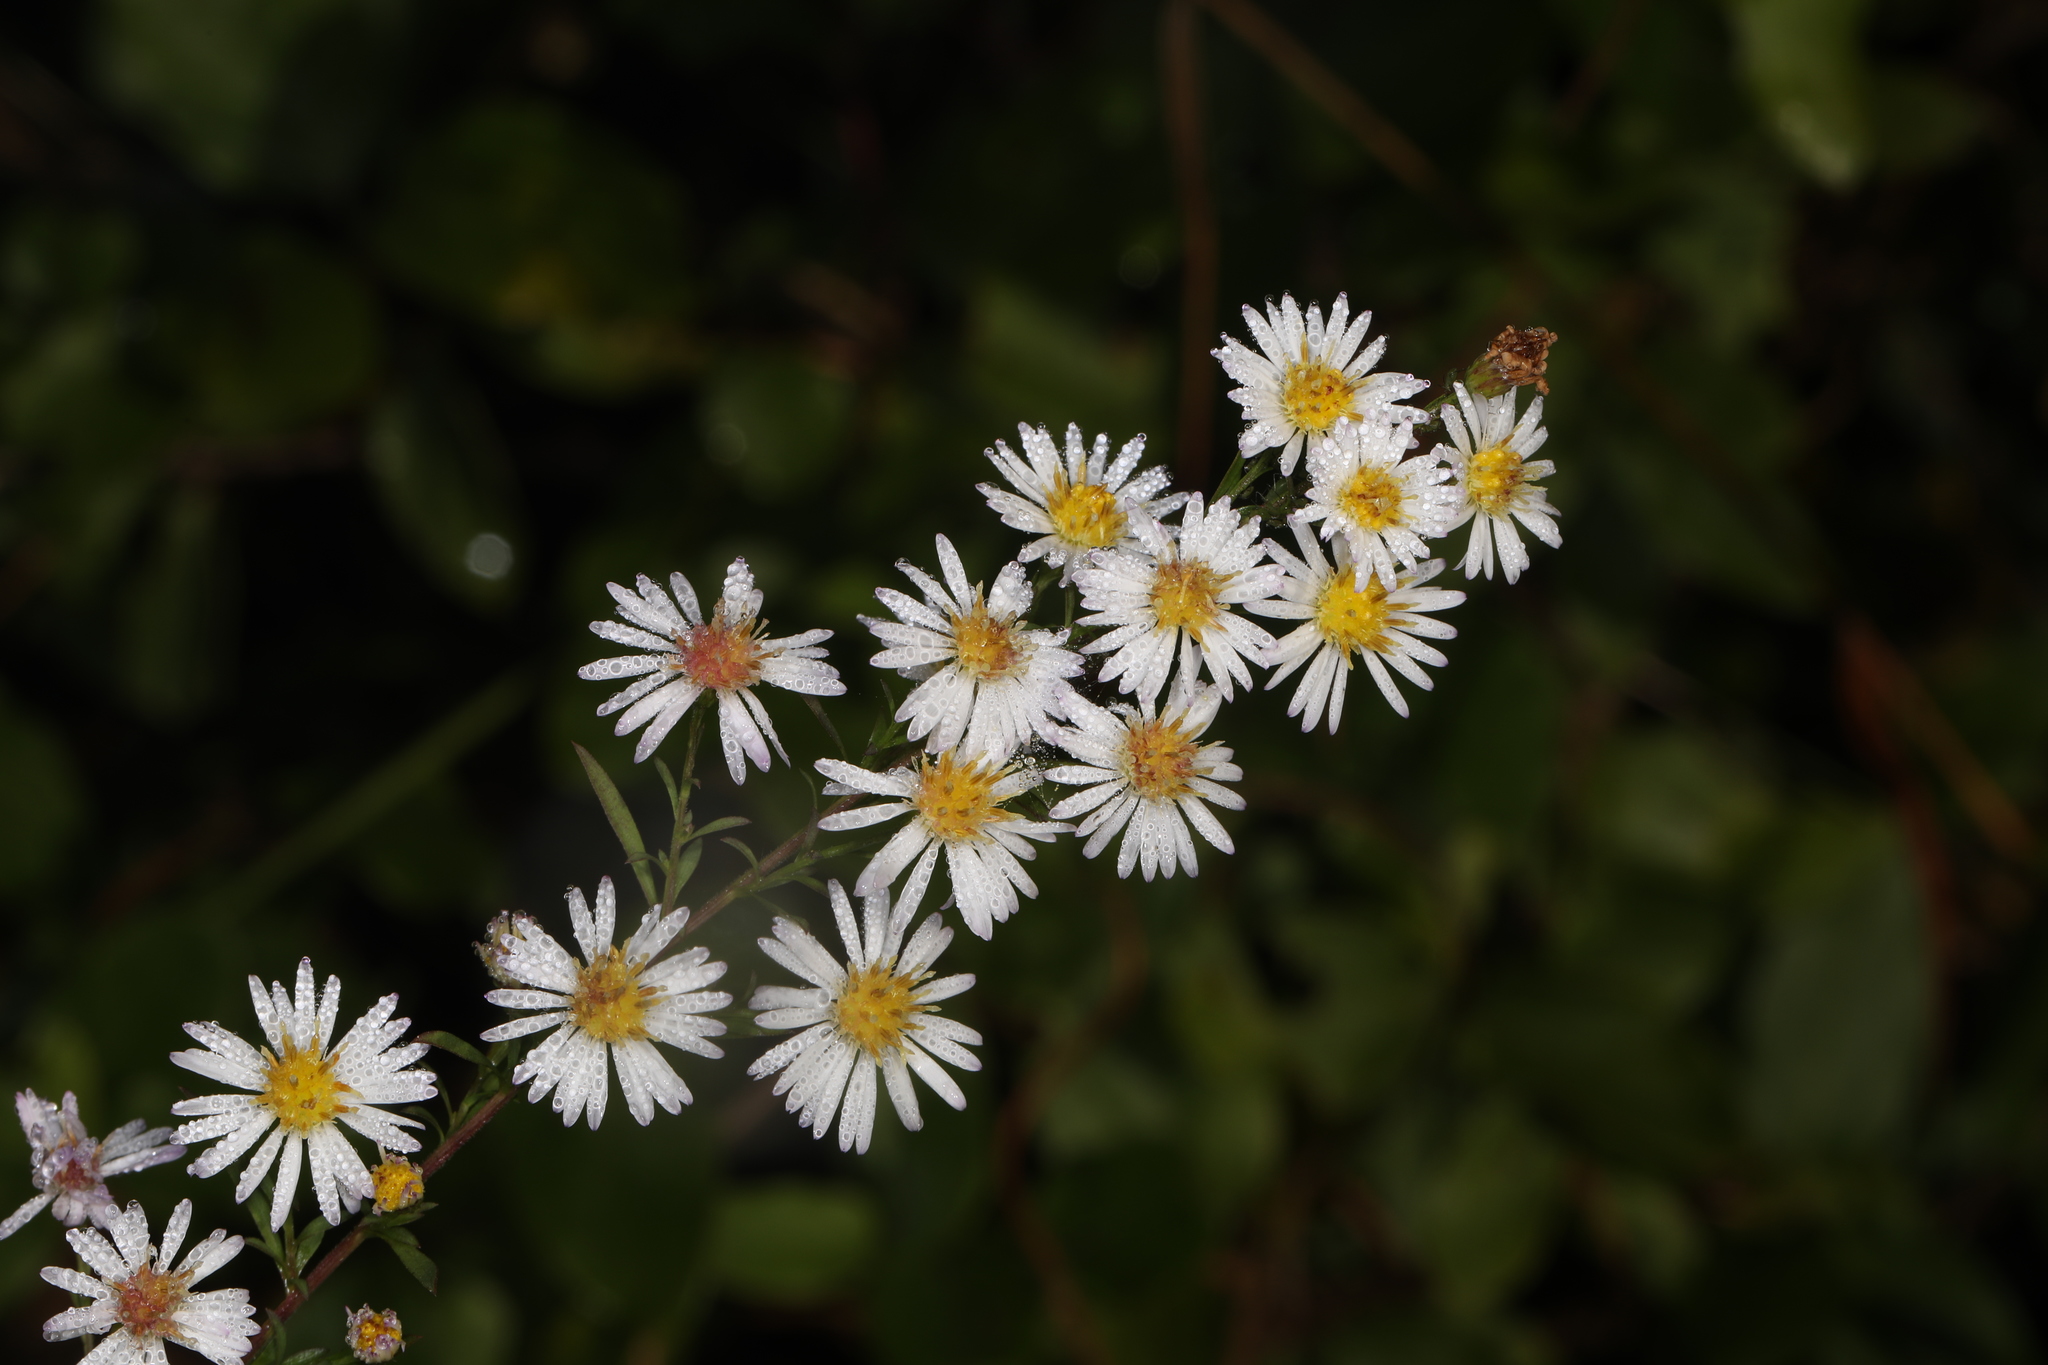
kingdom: Plantae
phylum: Tracheophyta
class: Magnoliopsida
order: Asterales
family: Asteraceae
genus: Symphyotrichum
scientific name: Symphyotrichum lanceolatum
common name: Panicled aster
